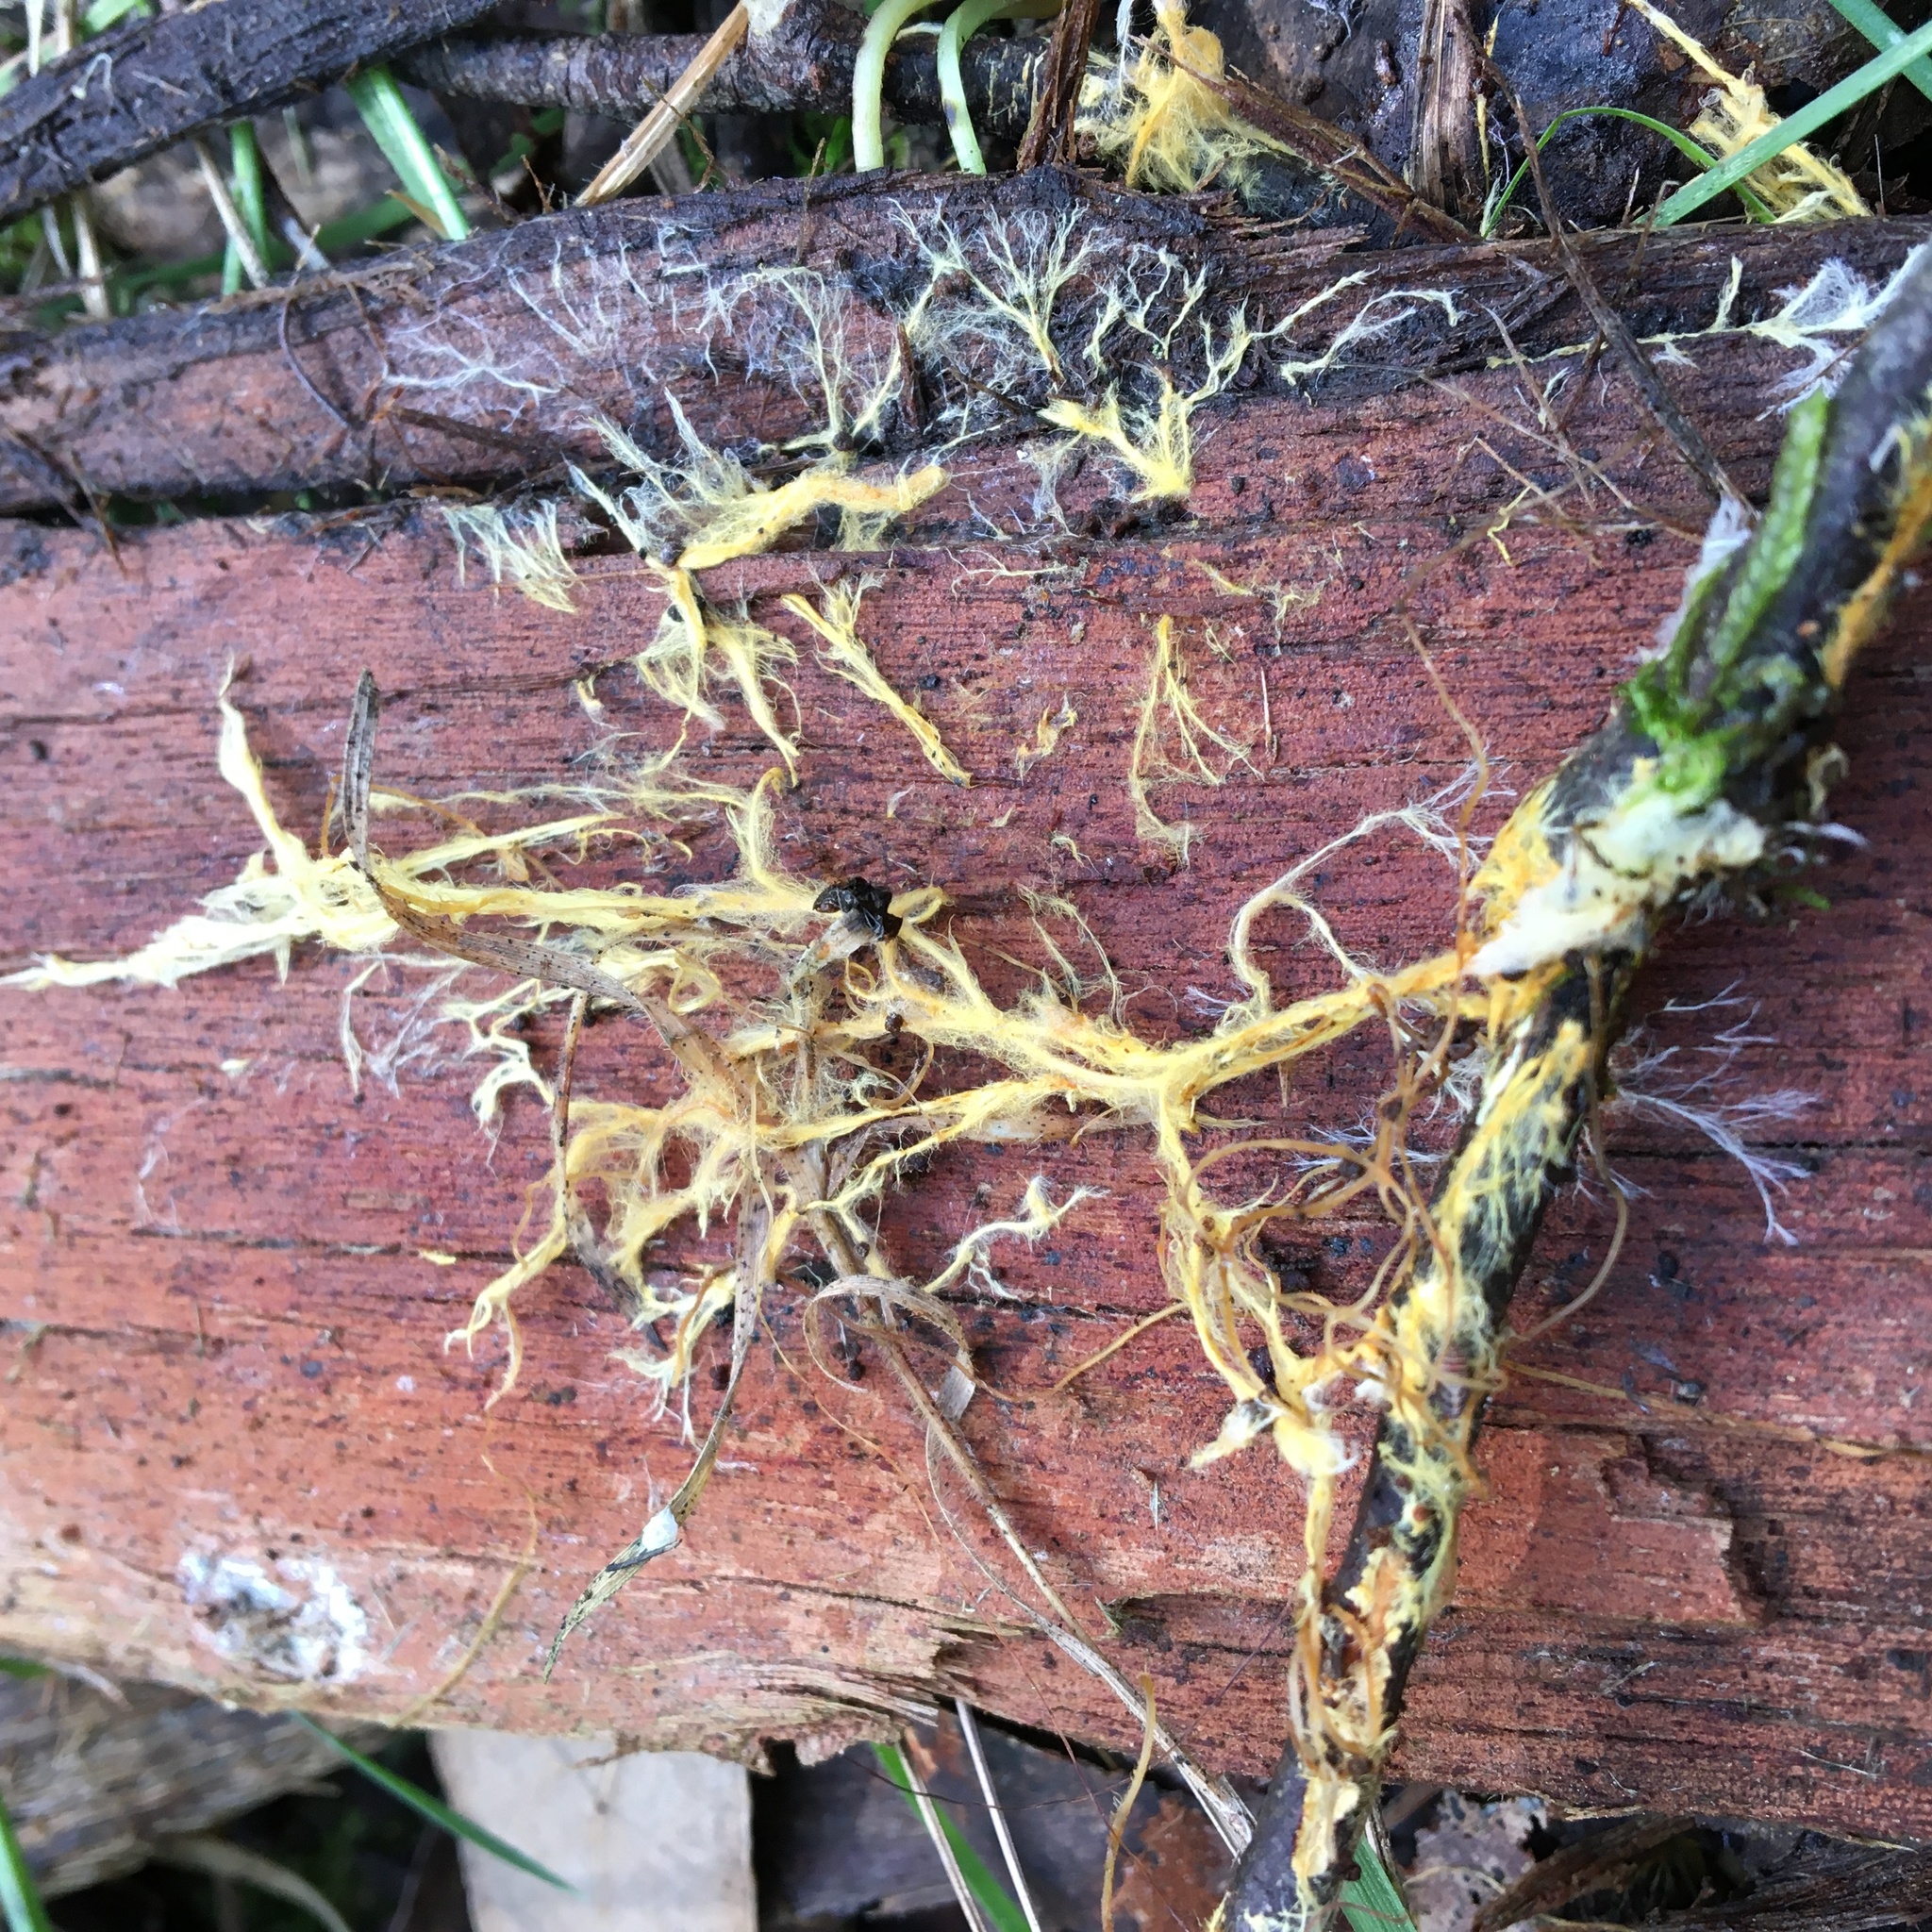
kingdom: Fungi
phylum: Basidiomycota
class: Agaricomycetes
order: Polyporales
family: Phanerochaetaceae
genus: Rhizochaete
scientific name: Rhizochaete filamentosa
